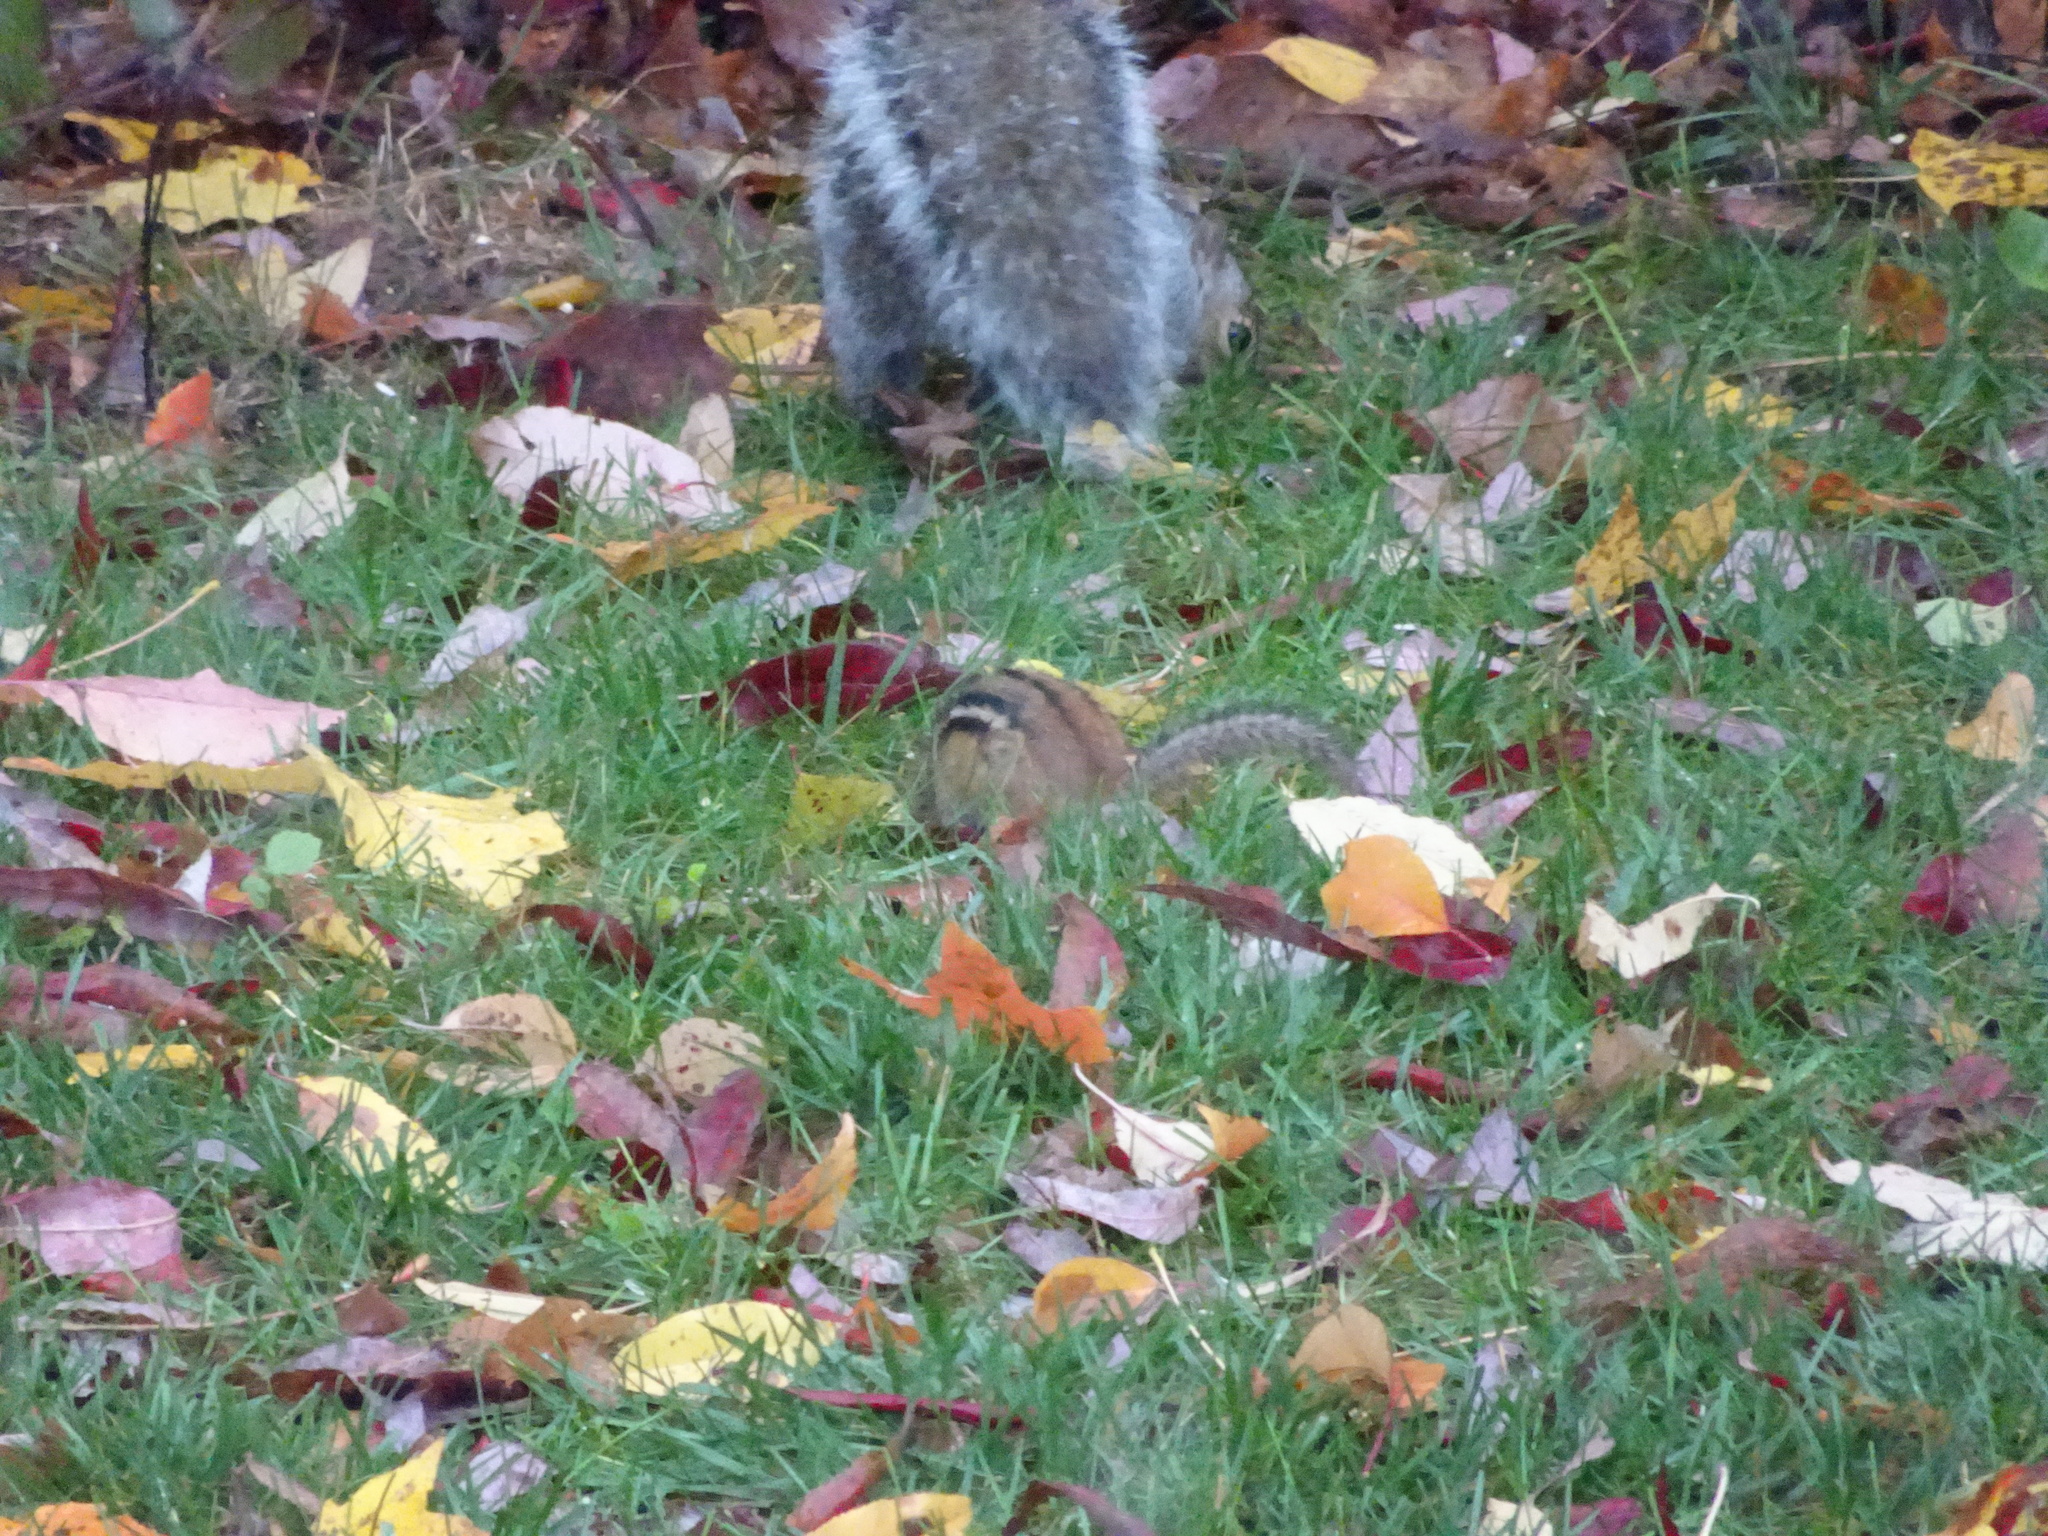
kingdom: Animalia
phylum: Chordata
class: Mammalia
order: Rodentia
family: Sciuridae
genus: Tamias
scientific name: Tamias striatus
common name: Eastern chipmunk
